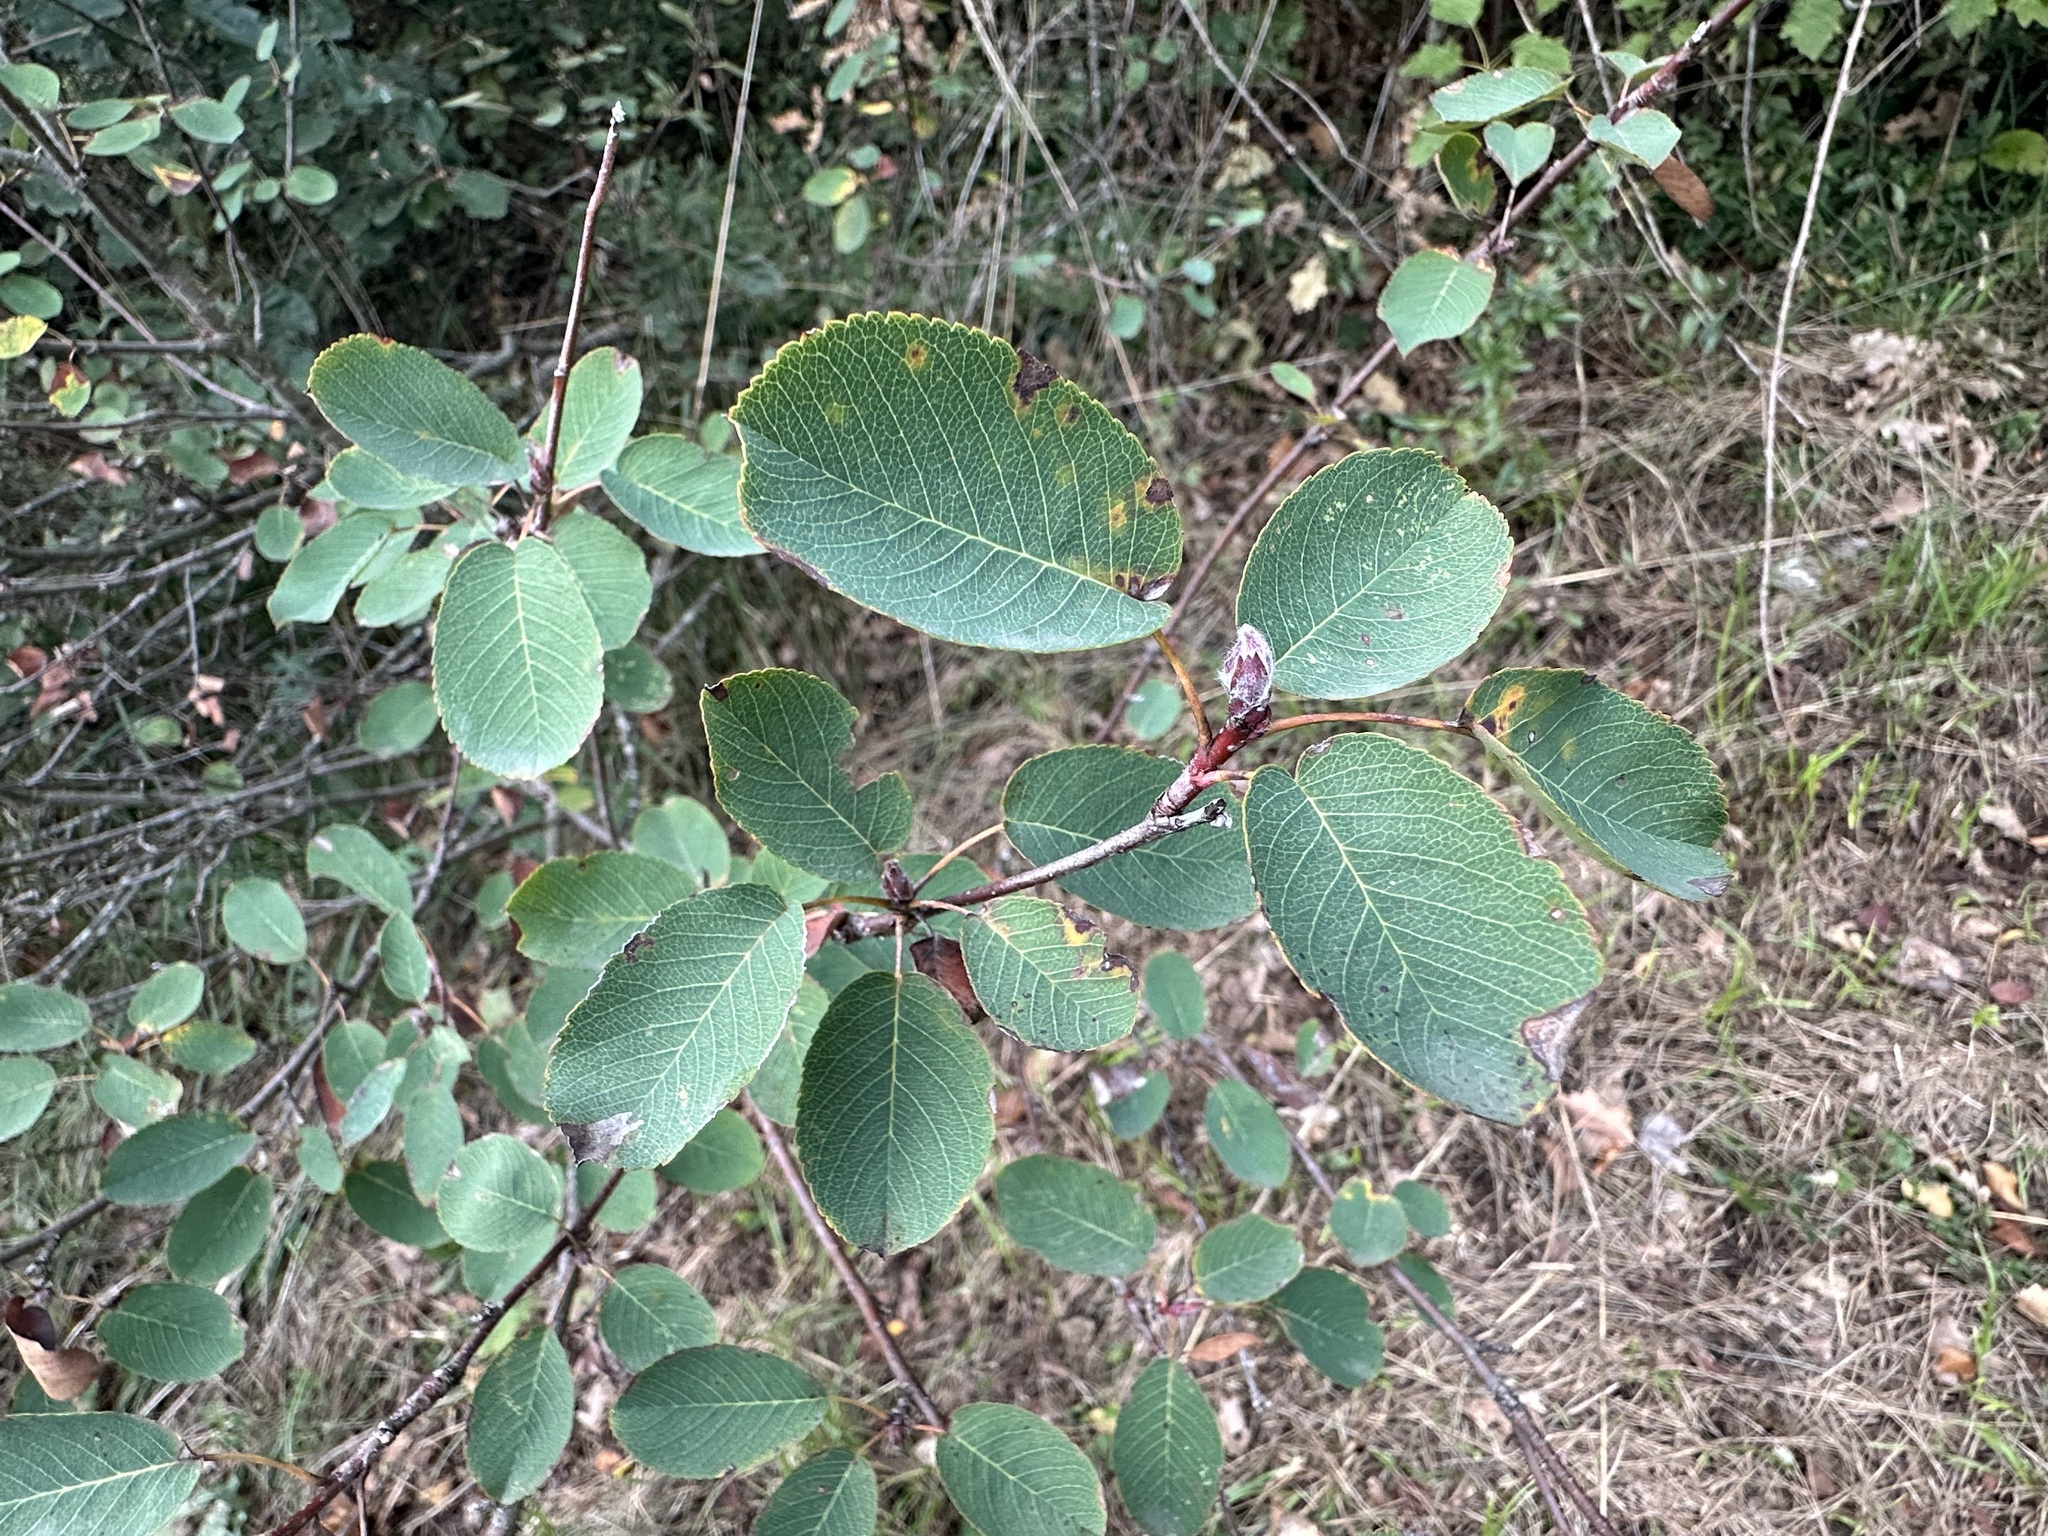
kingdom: Plantae
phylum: Tracheophyta
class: Magnoliopsida
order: Rosales
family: Rosaceae
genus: Amelanchier
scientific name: Amelanchier ovalis
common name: Serviceberry
